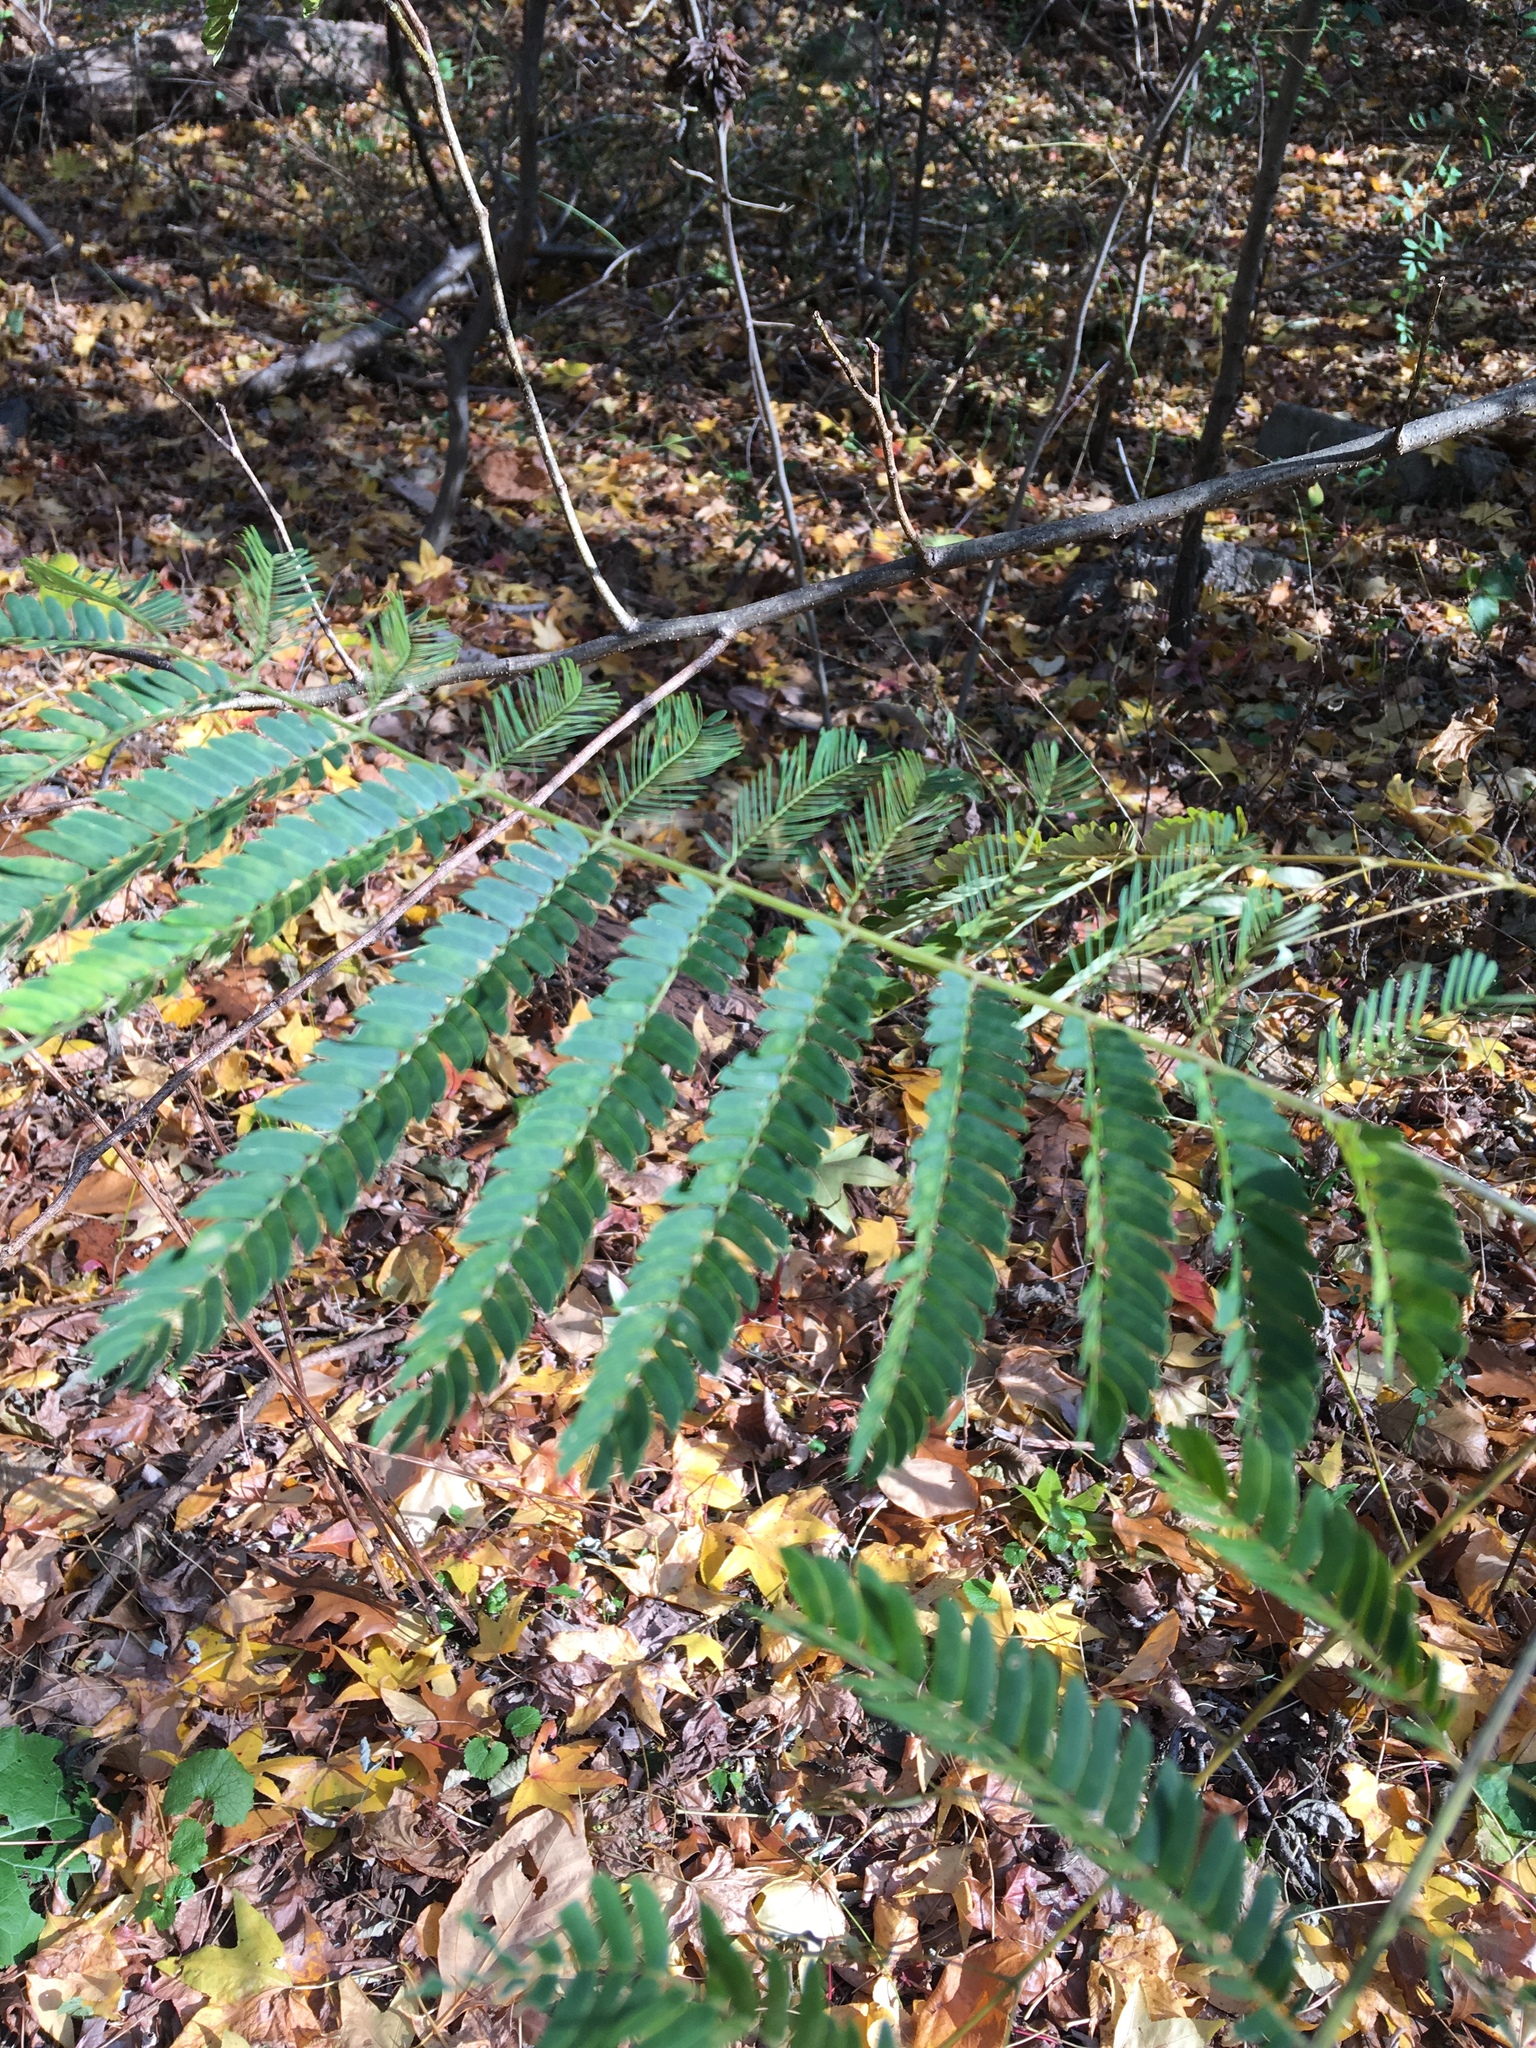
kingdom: Plantae
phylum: Tracheophyta
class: Magnoliopsida
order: Fabales
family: Fabaceae
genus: Albizia
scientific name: Albizia julibrissin
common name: Silktree
